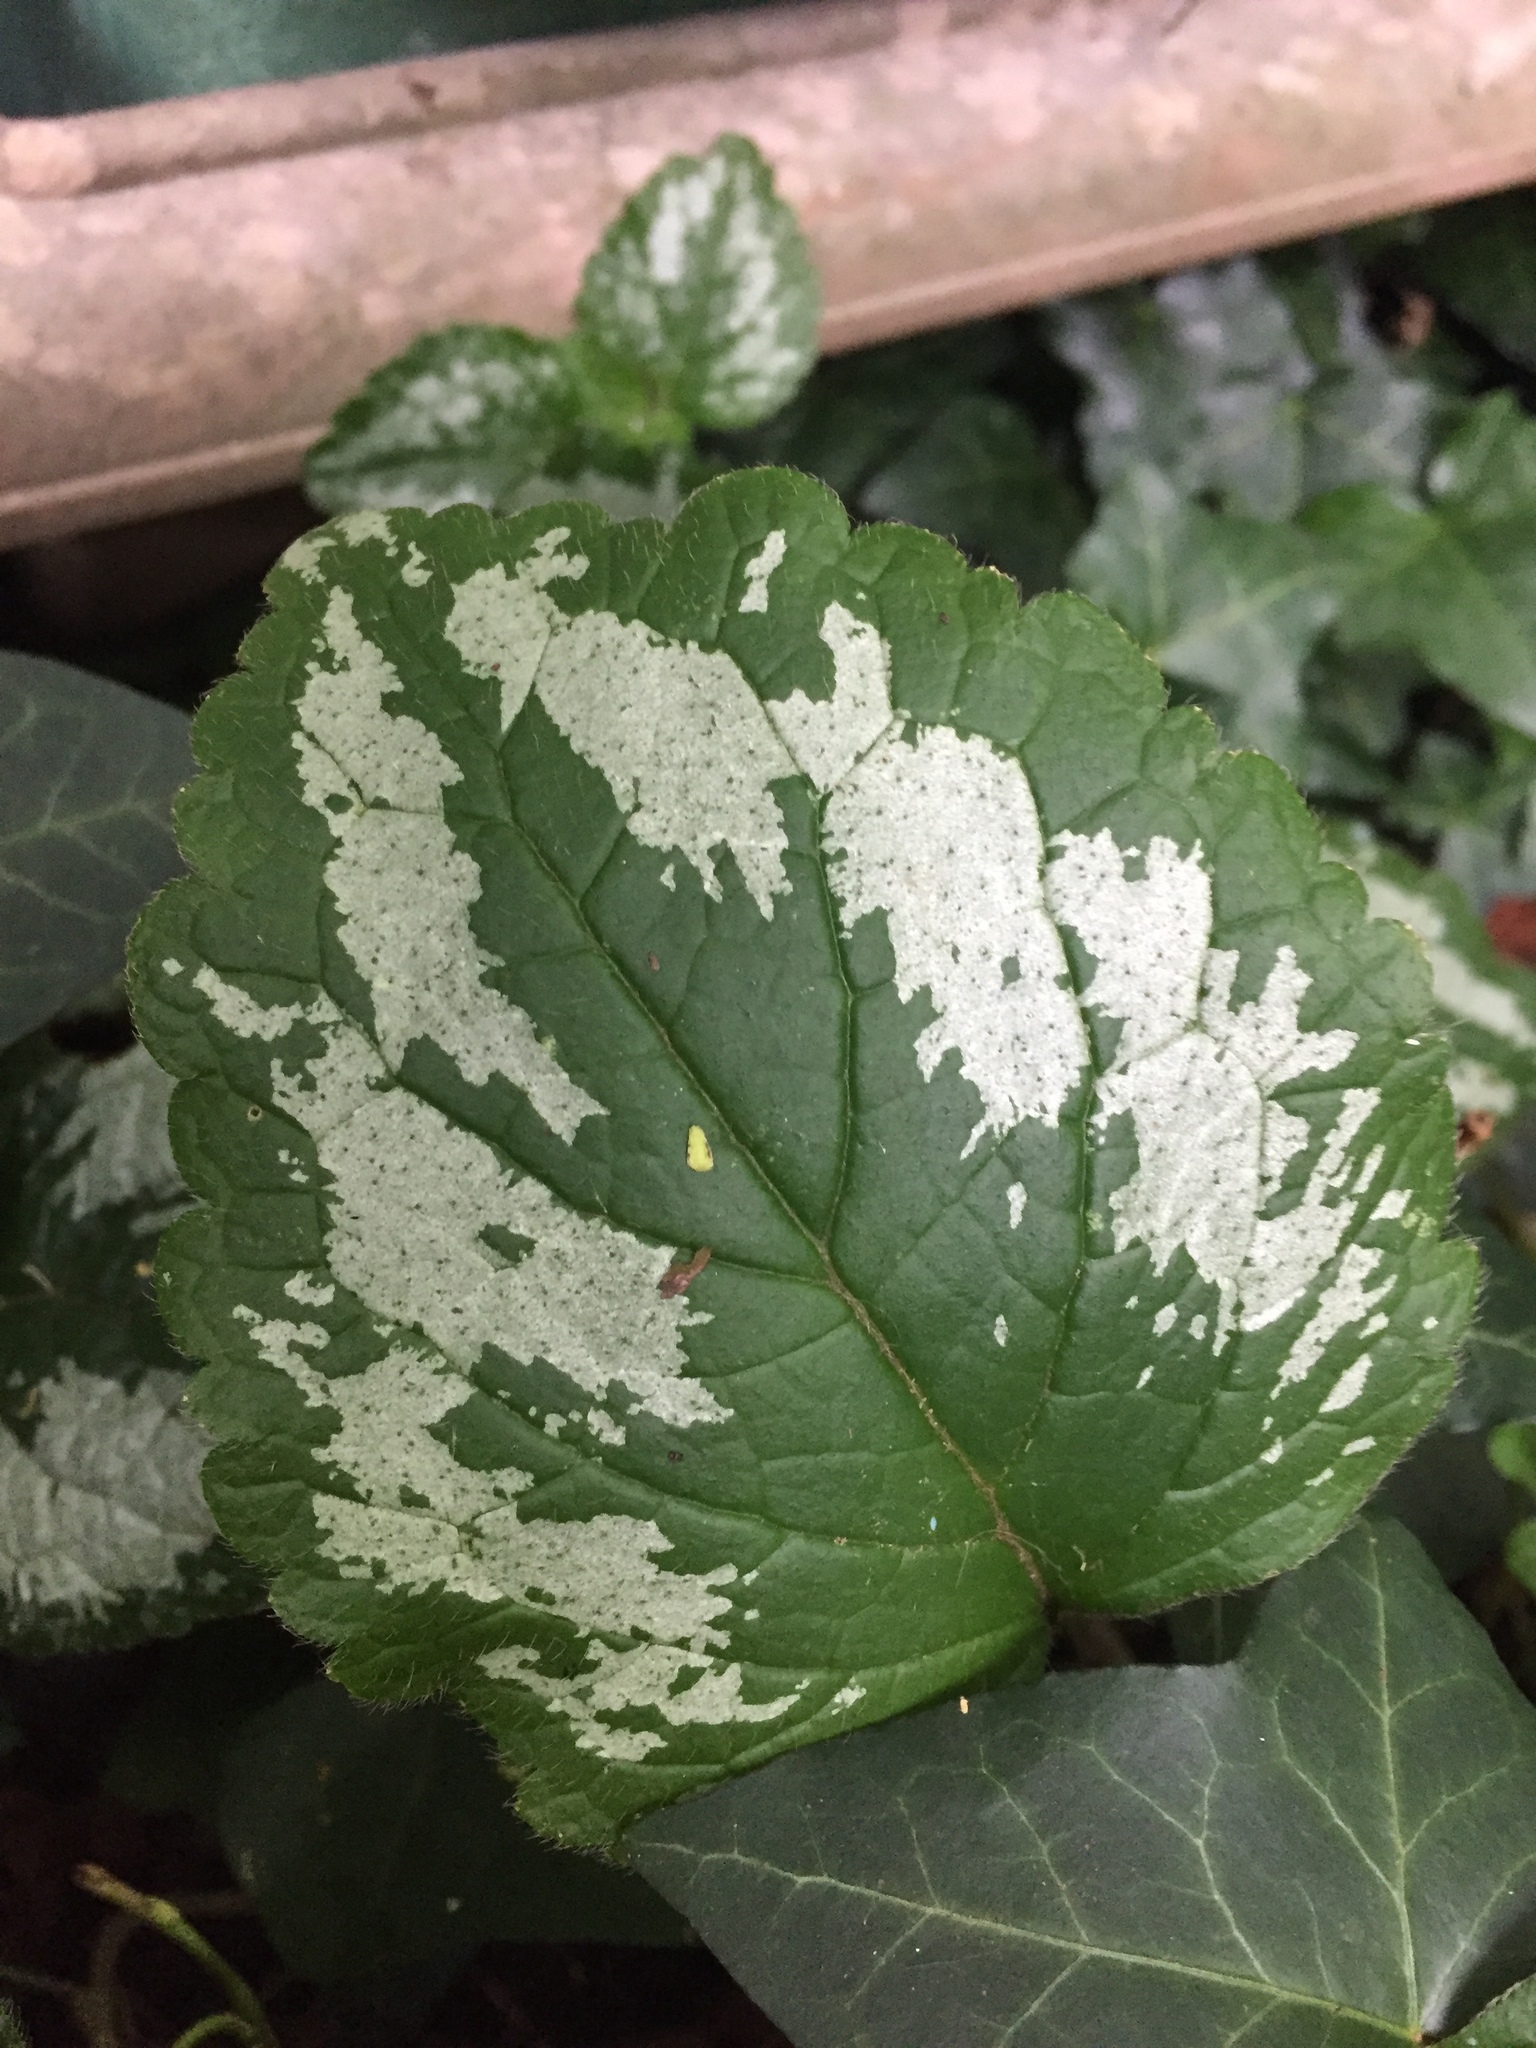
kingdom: Plantae
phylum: Tracheophyta
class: Magnoliopsida
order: Lamiales
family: Lamiaceae
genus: Lamium
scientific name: Lamium galeobdolon
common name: Yellow archangel
